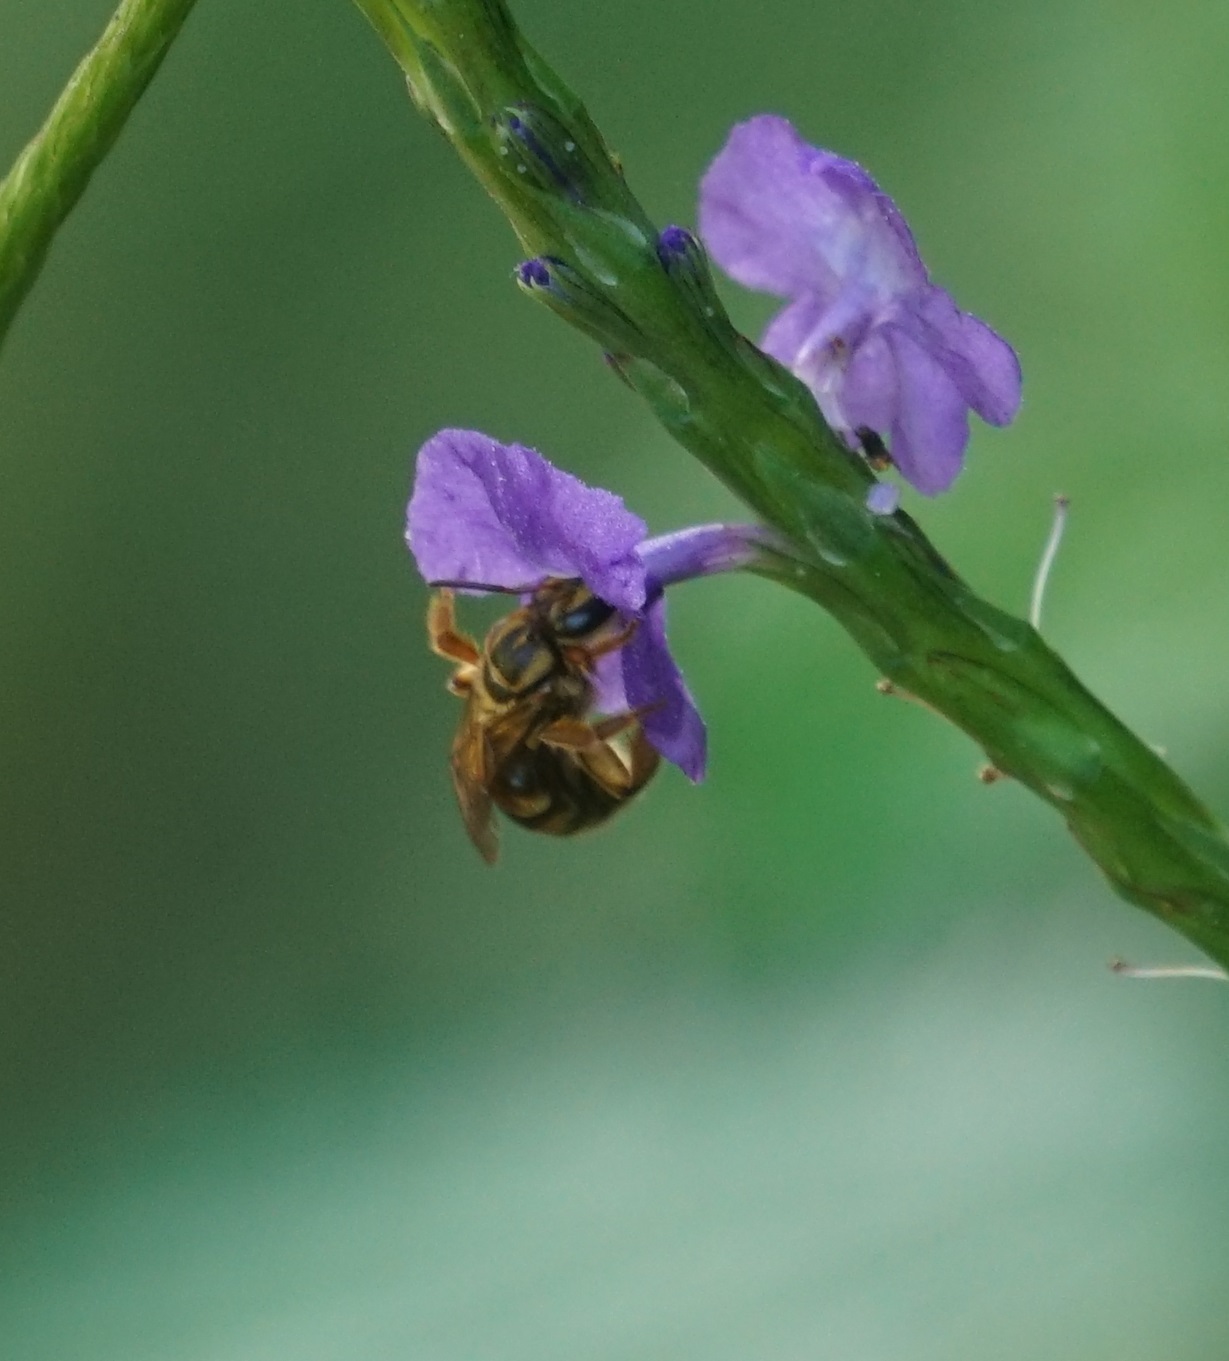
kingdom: Animalia
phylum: Arthropoda
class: Insecta
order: Hymenoptera
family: Halictidae
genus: Mellitidia
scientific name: Mellitidia tomentifera
